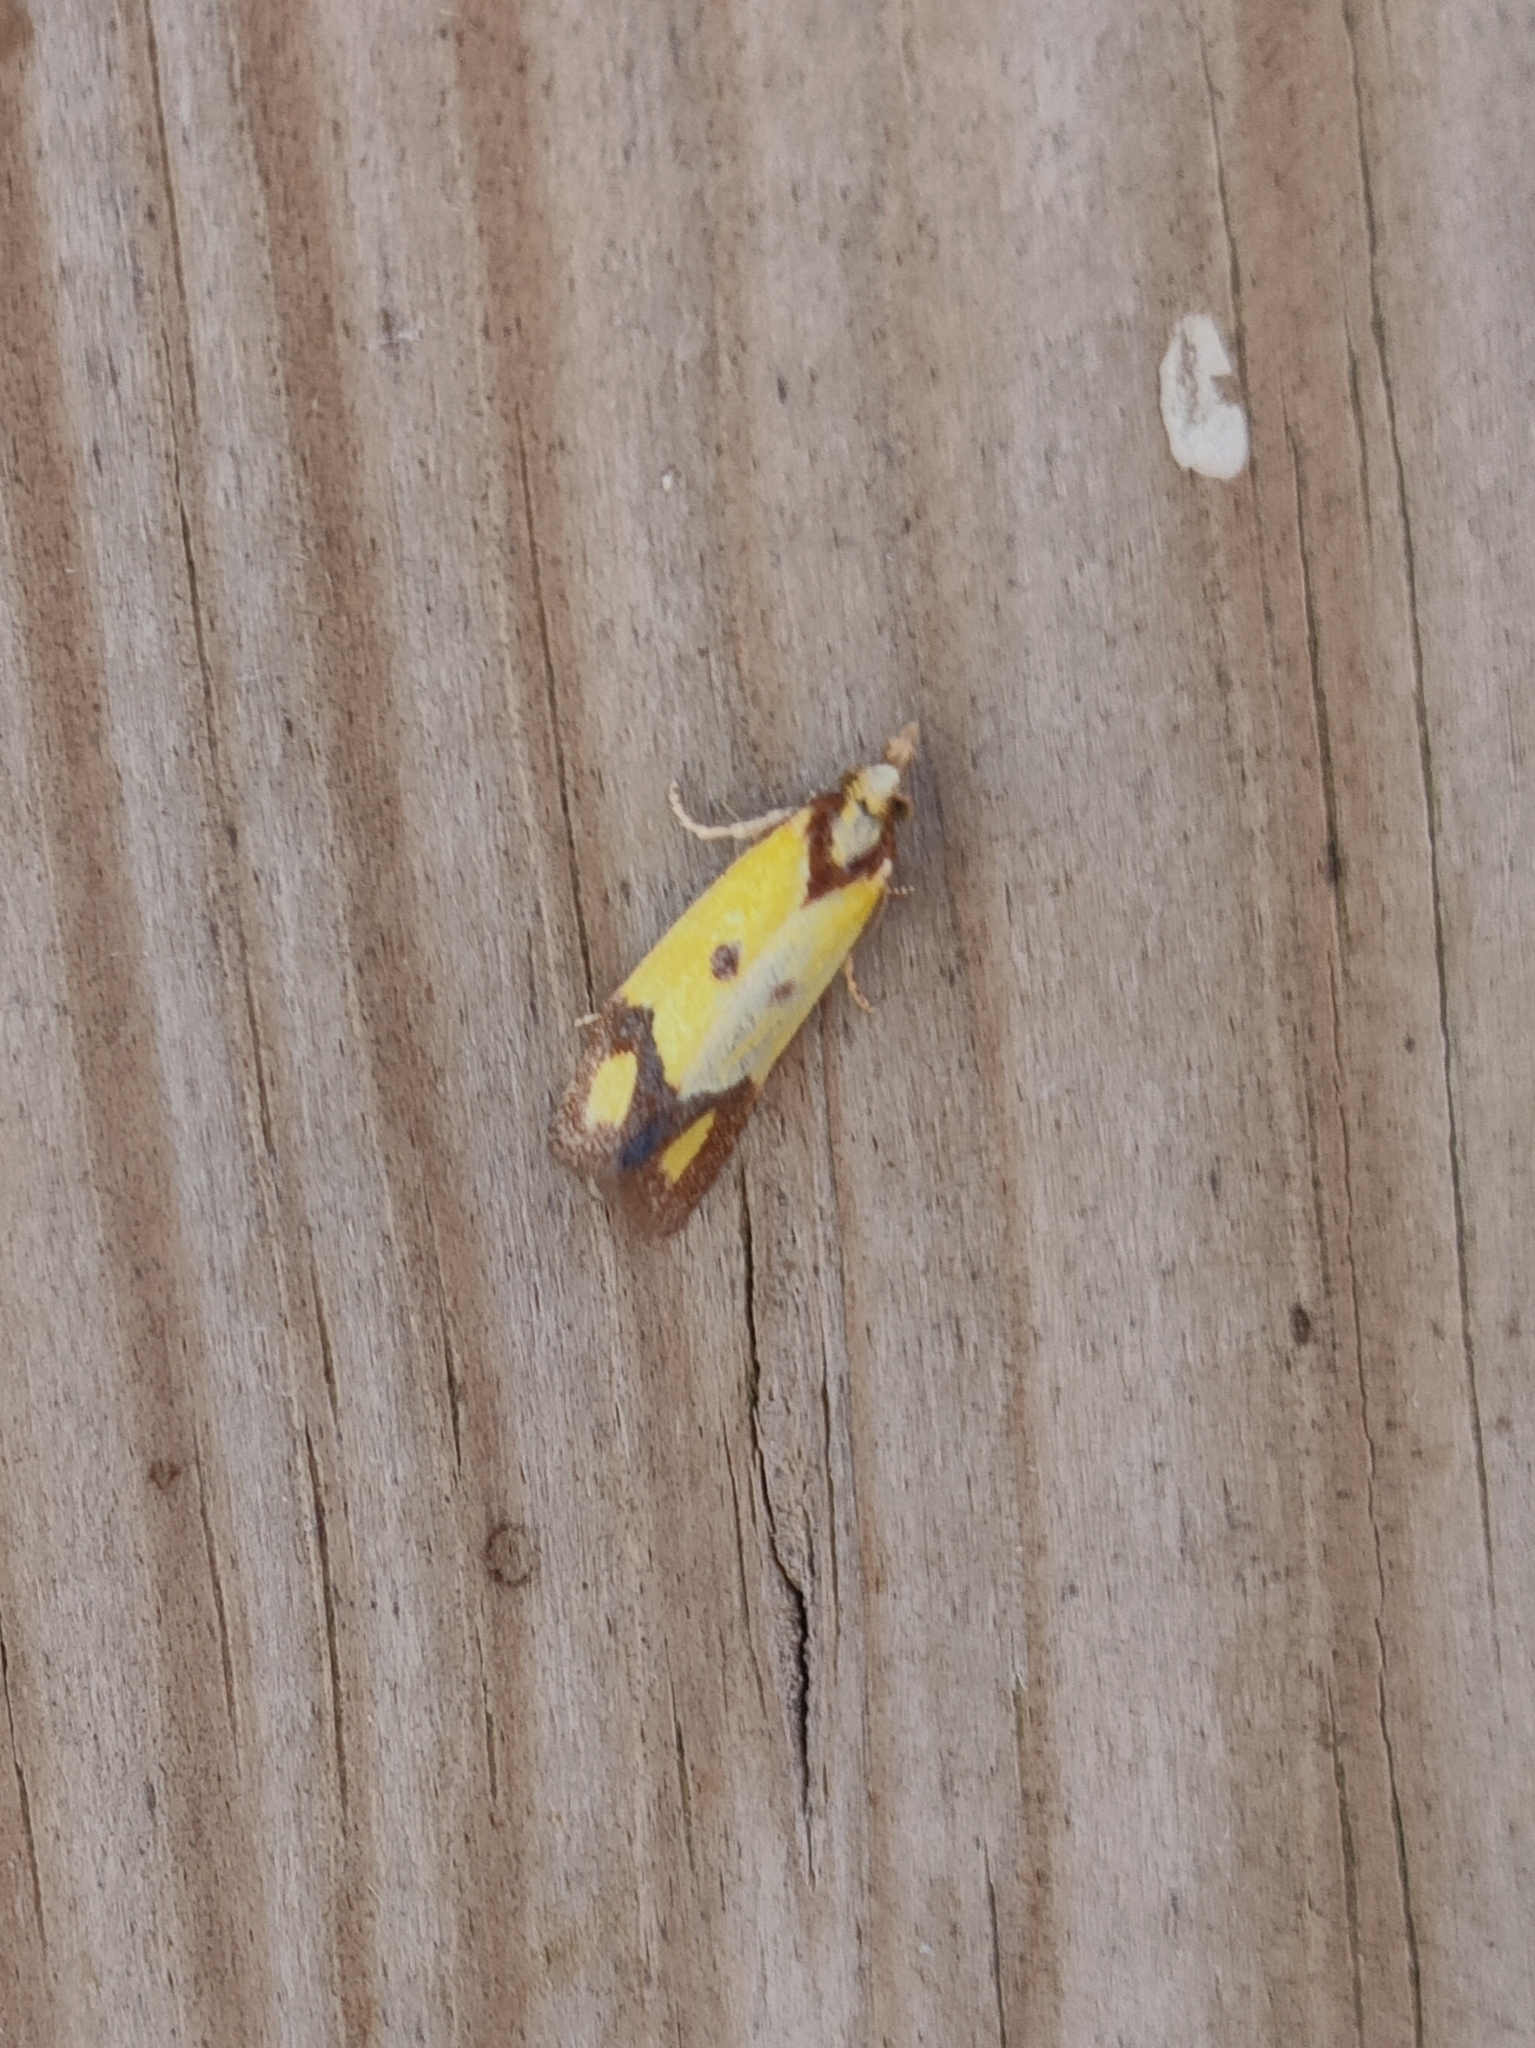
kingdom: Animalia
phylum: Arthropoda
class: Insecta
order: Lepidoptera
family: Tortricidae
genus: Agapeta
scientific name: Agapeta zoegana
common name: Sulfur knapweed root moth
